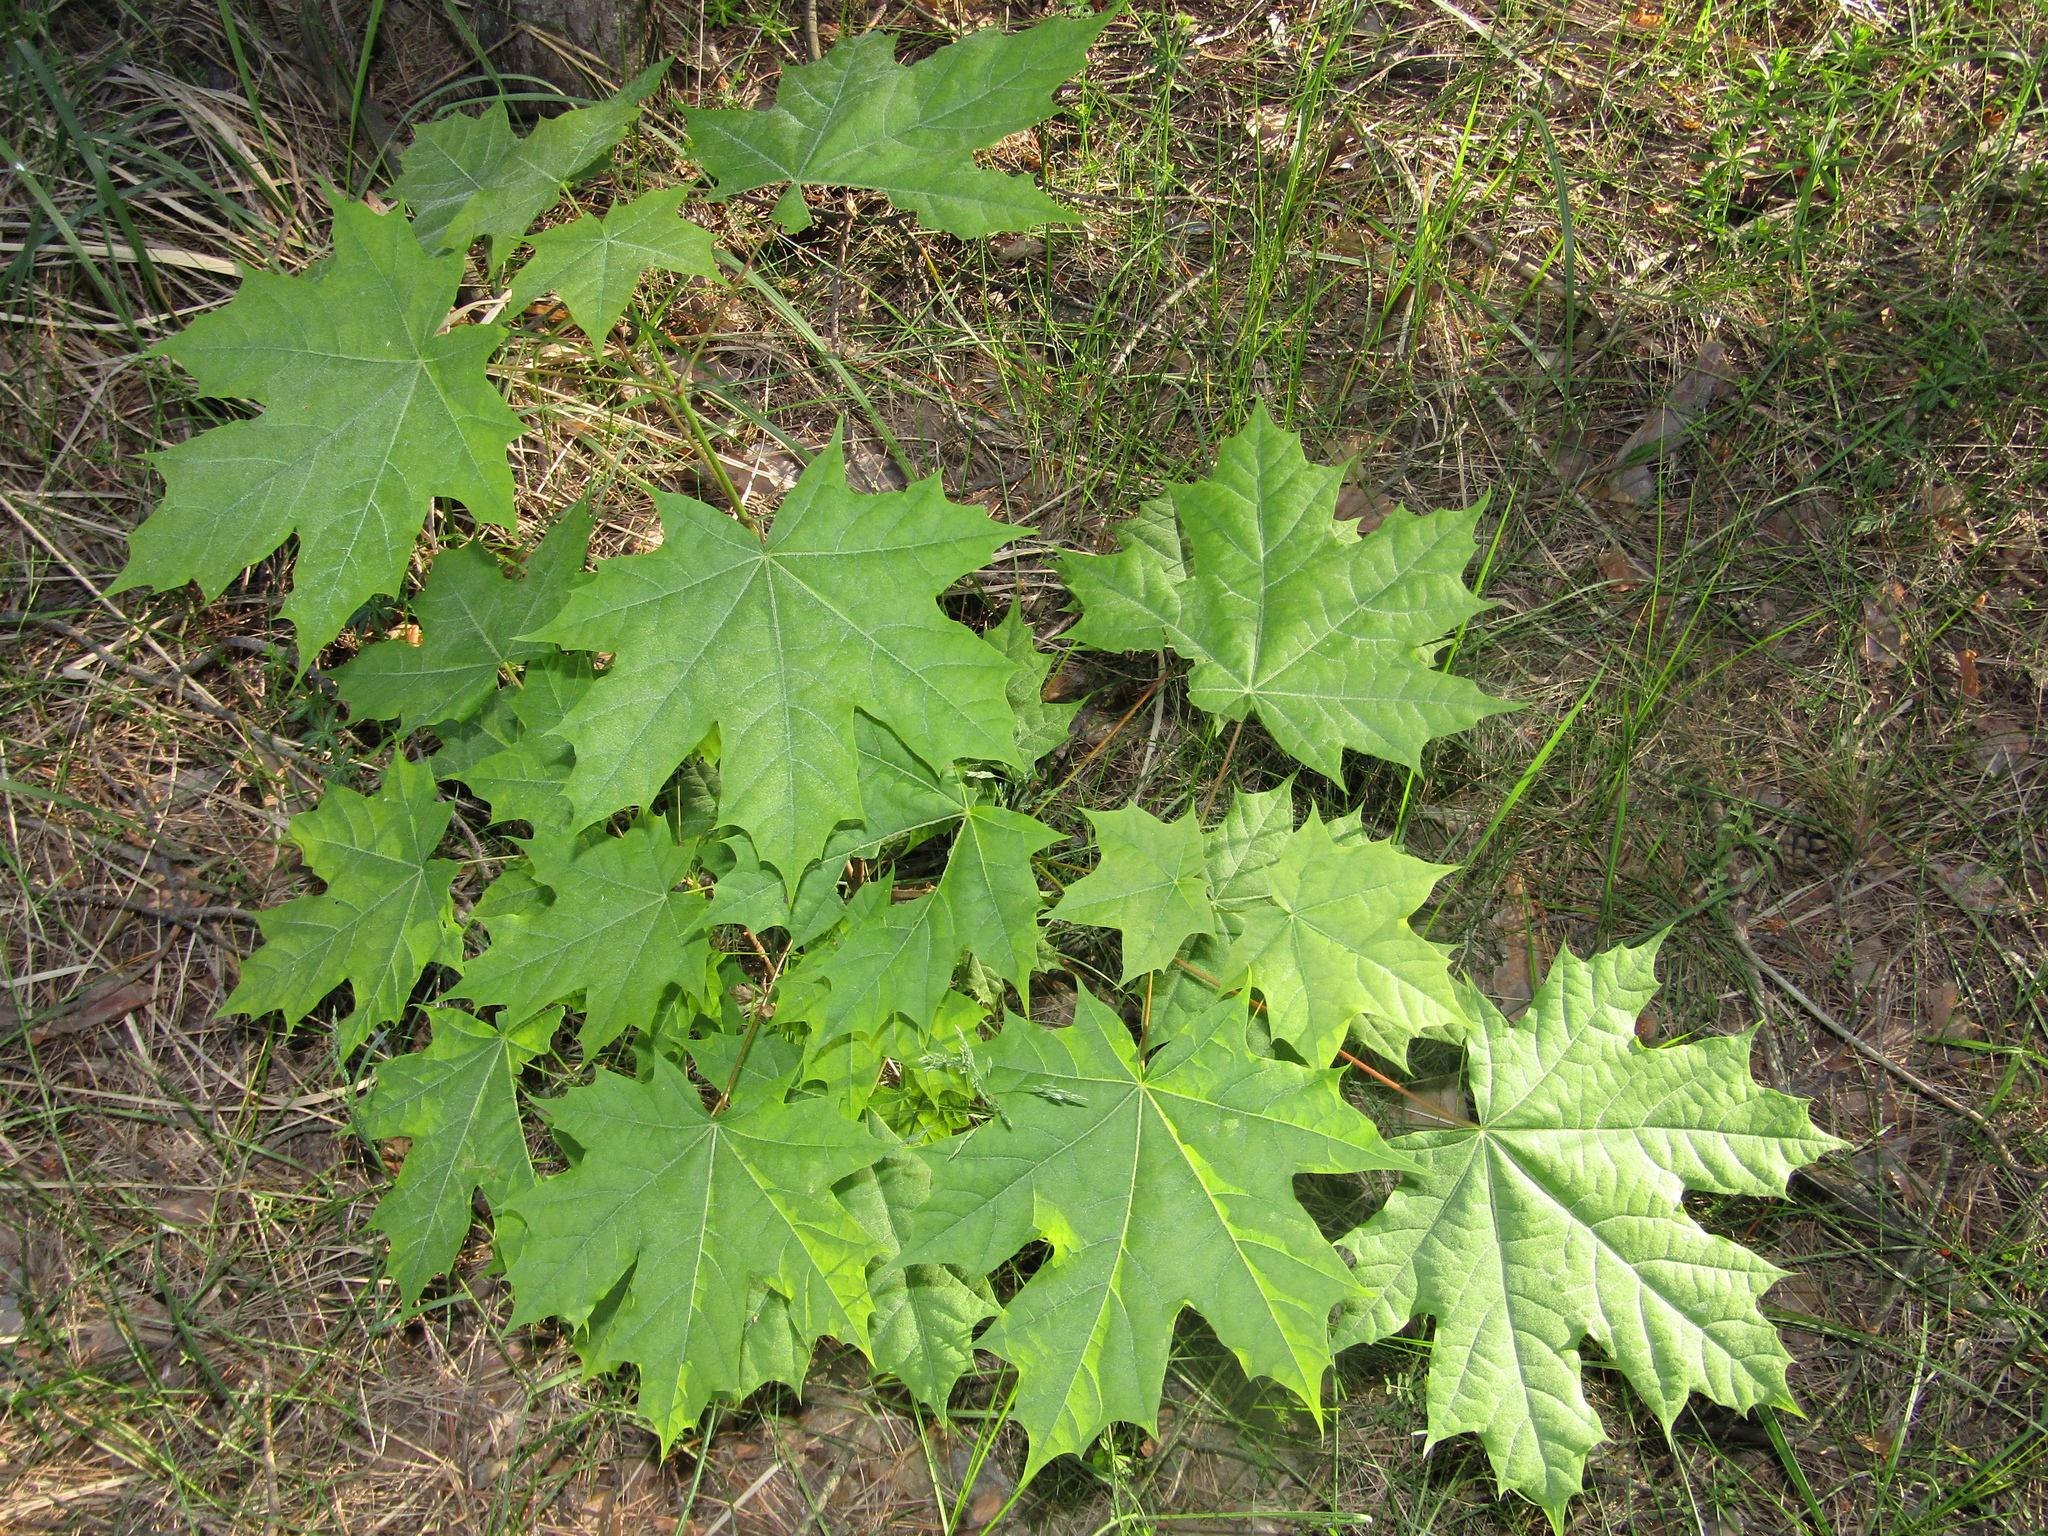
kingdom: Plantae
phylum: Tracheophyta
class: Magnoliopsida
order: Sapindales
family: Sapindaceae
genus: Acer
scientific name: Acer platanoides
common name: Norway maple
